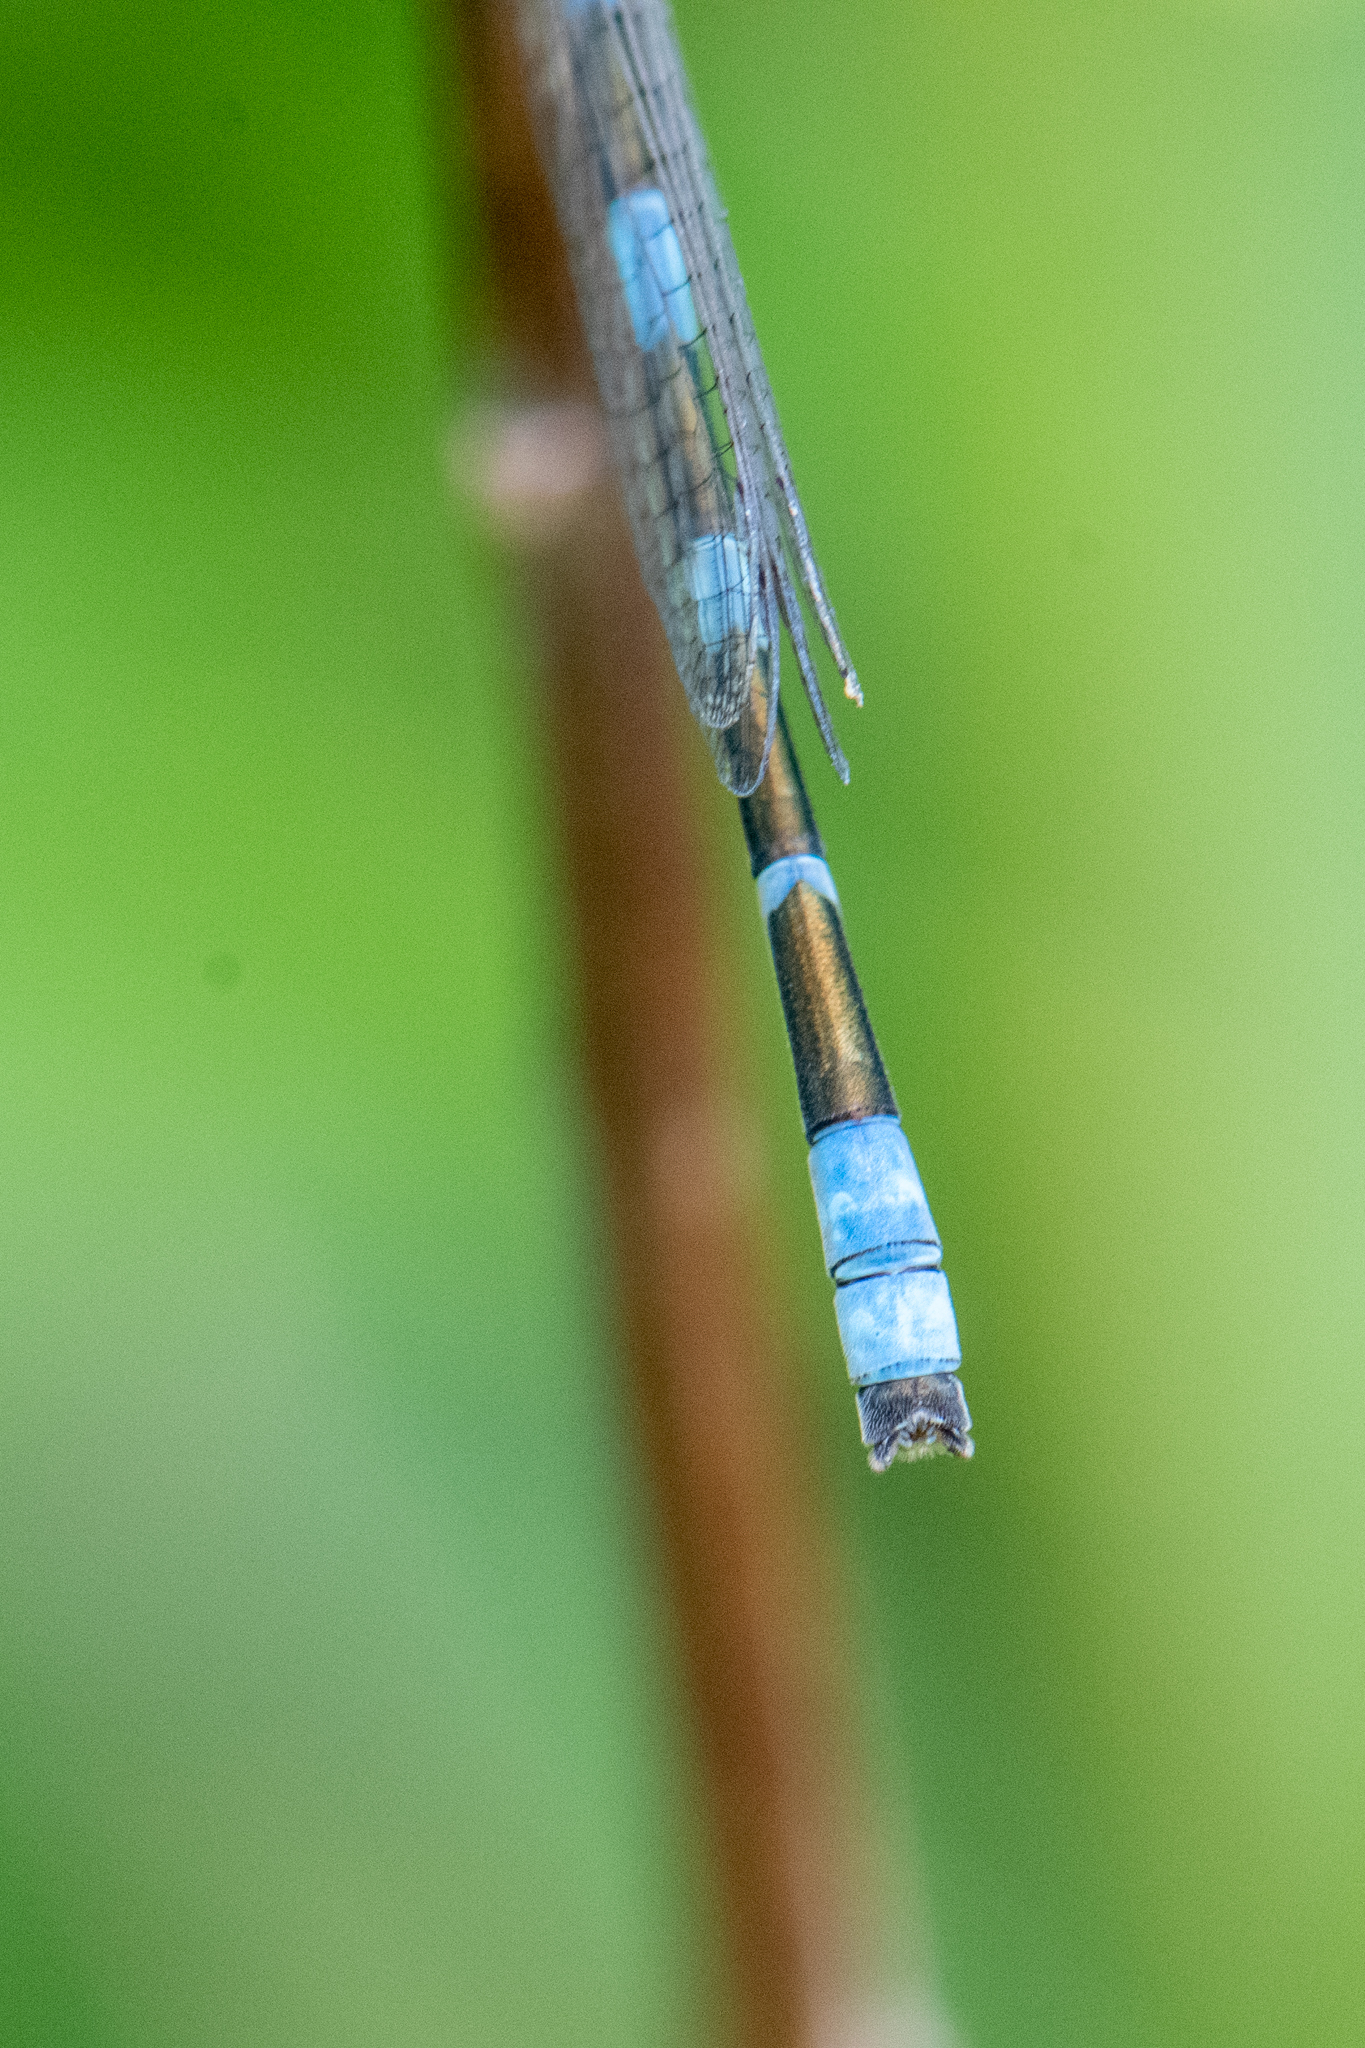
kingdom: Animalia
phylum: Arthropoda
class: Insecta
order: Odonata
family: Coenagrionidae
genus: Enallagma
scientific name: Enallagma carunculatum
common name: Tule bluet
